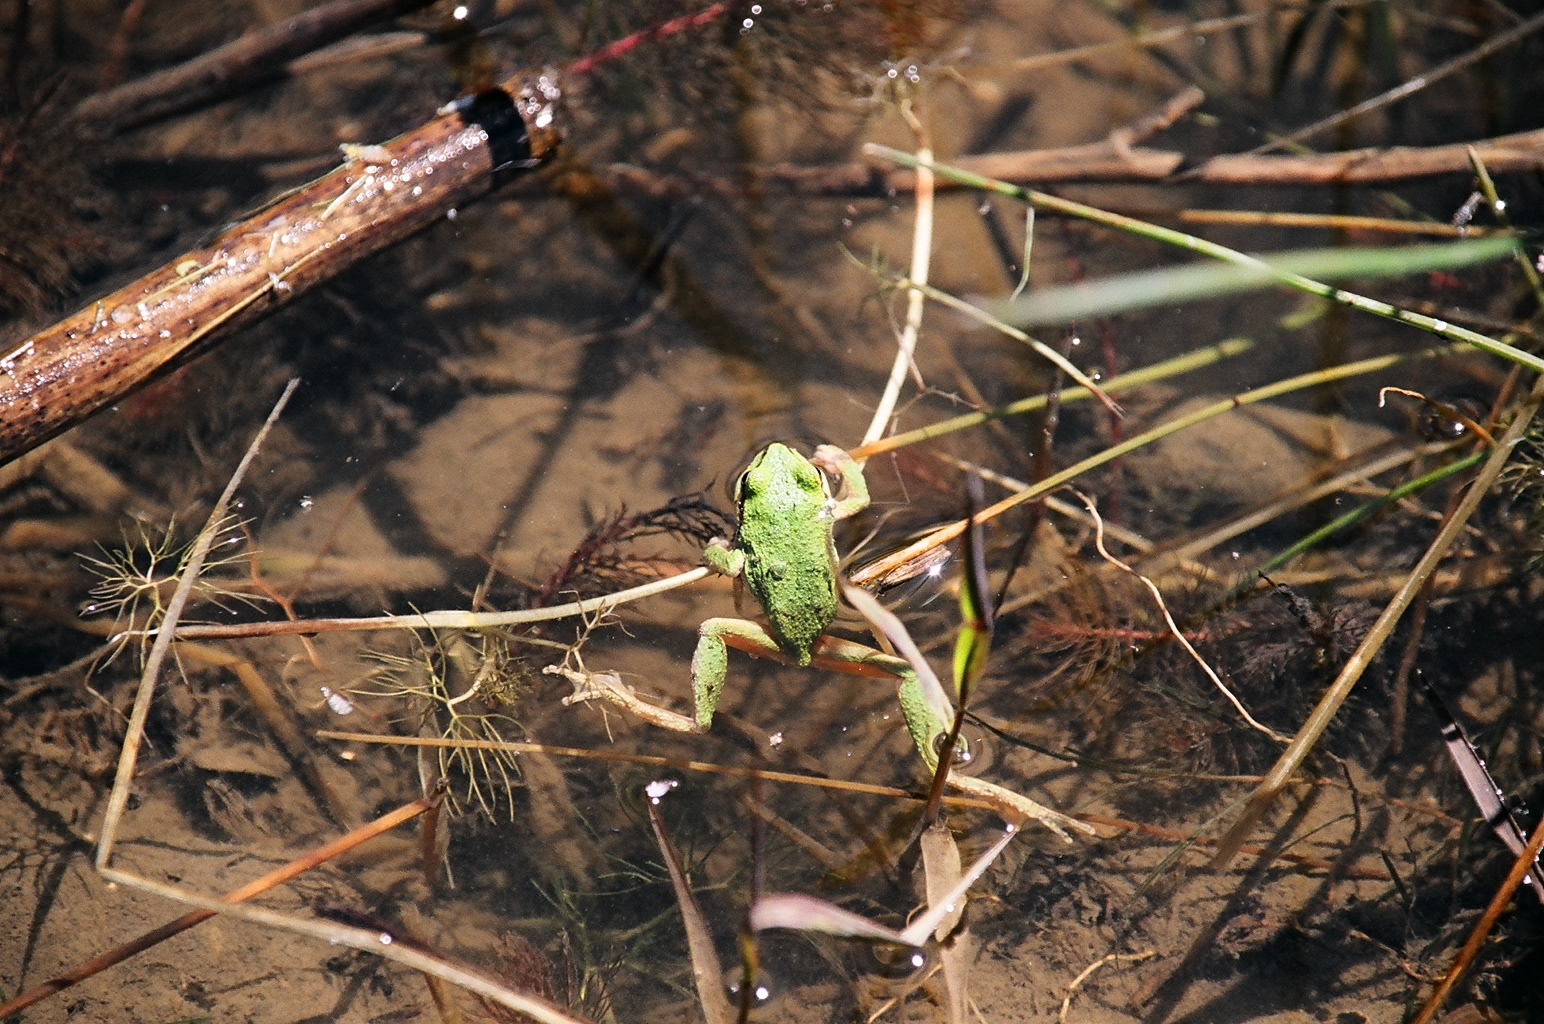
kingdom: Animalia
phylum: Chordata
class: Amphibia
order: Anura
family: Hylidae
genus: Pseudacris
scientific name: Pseudacris regilla
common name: Pacific chorus frog
